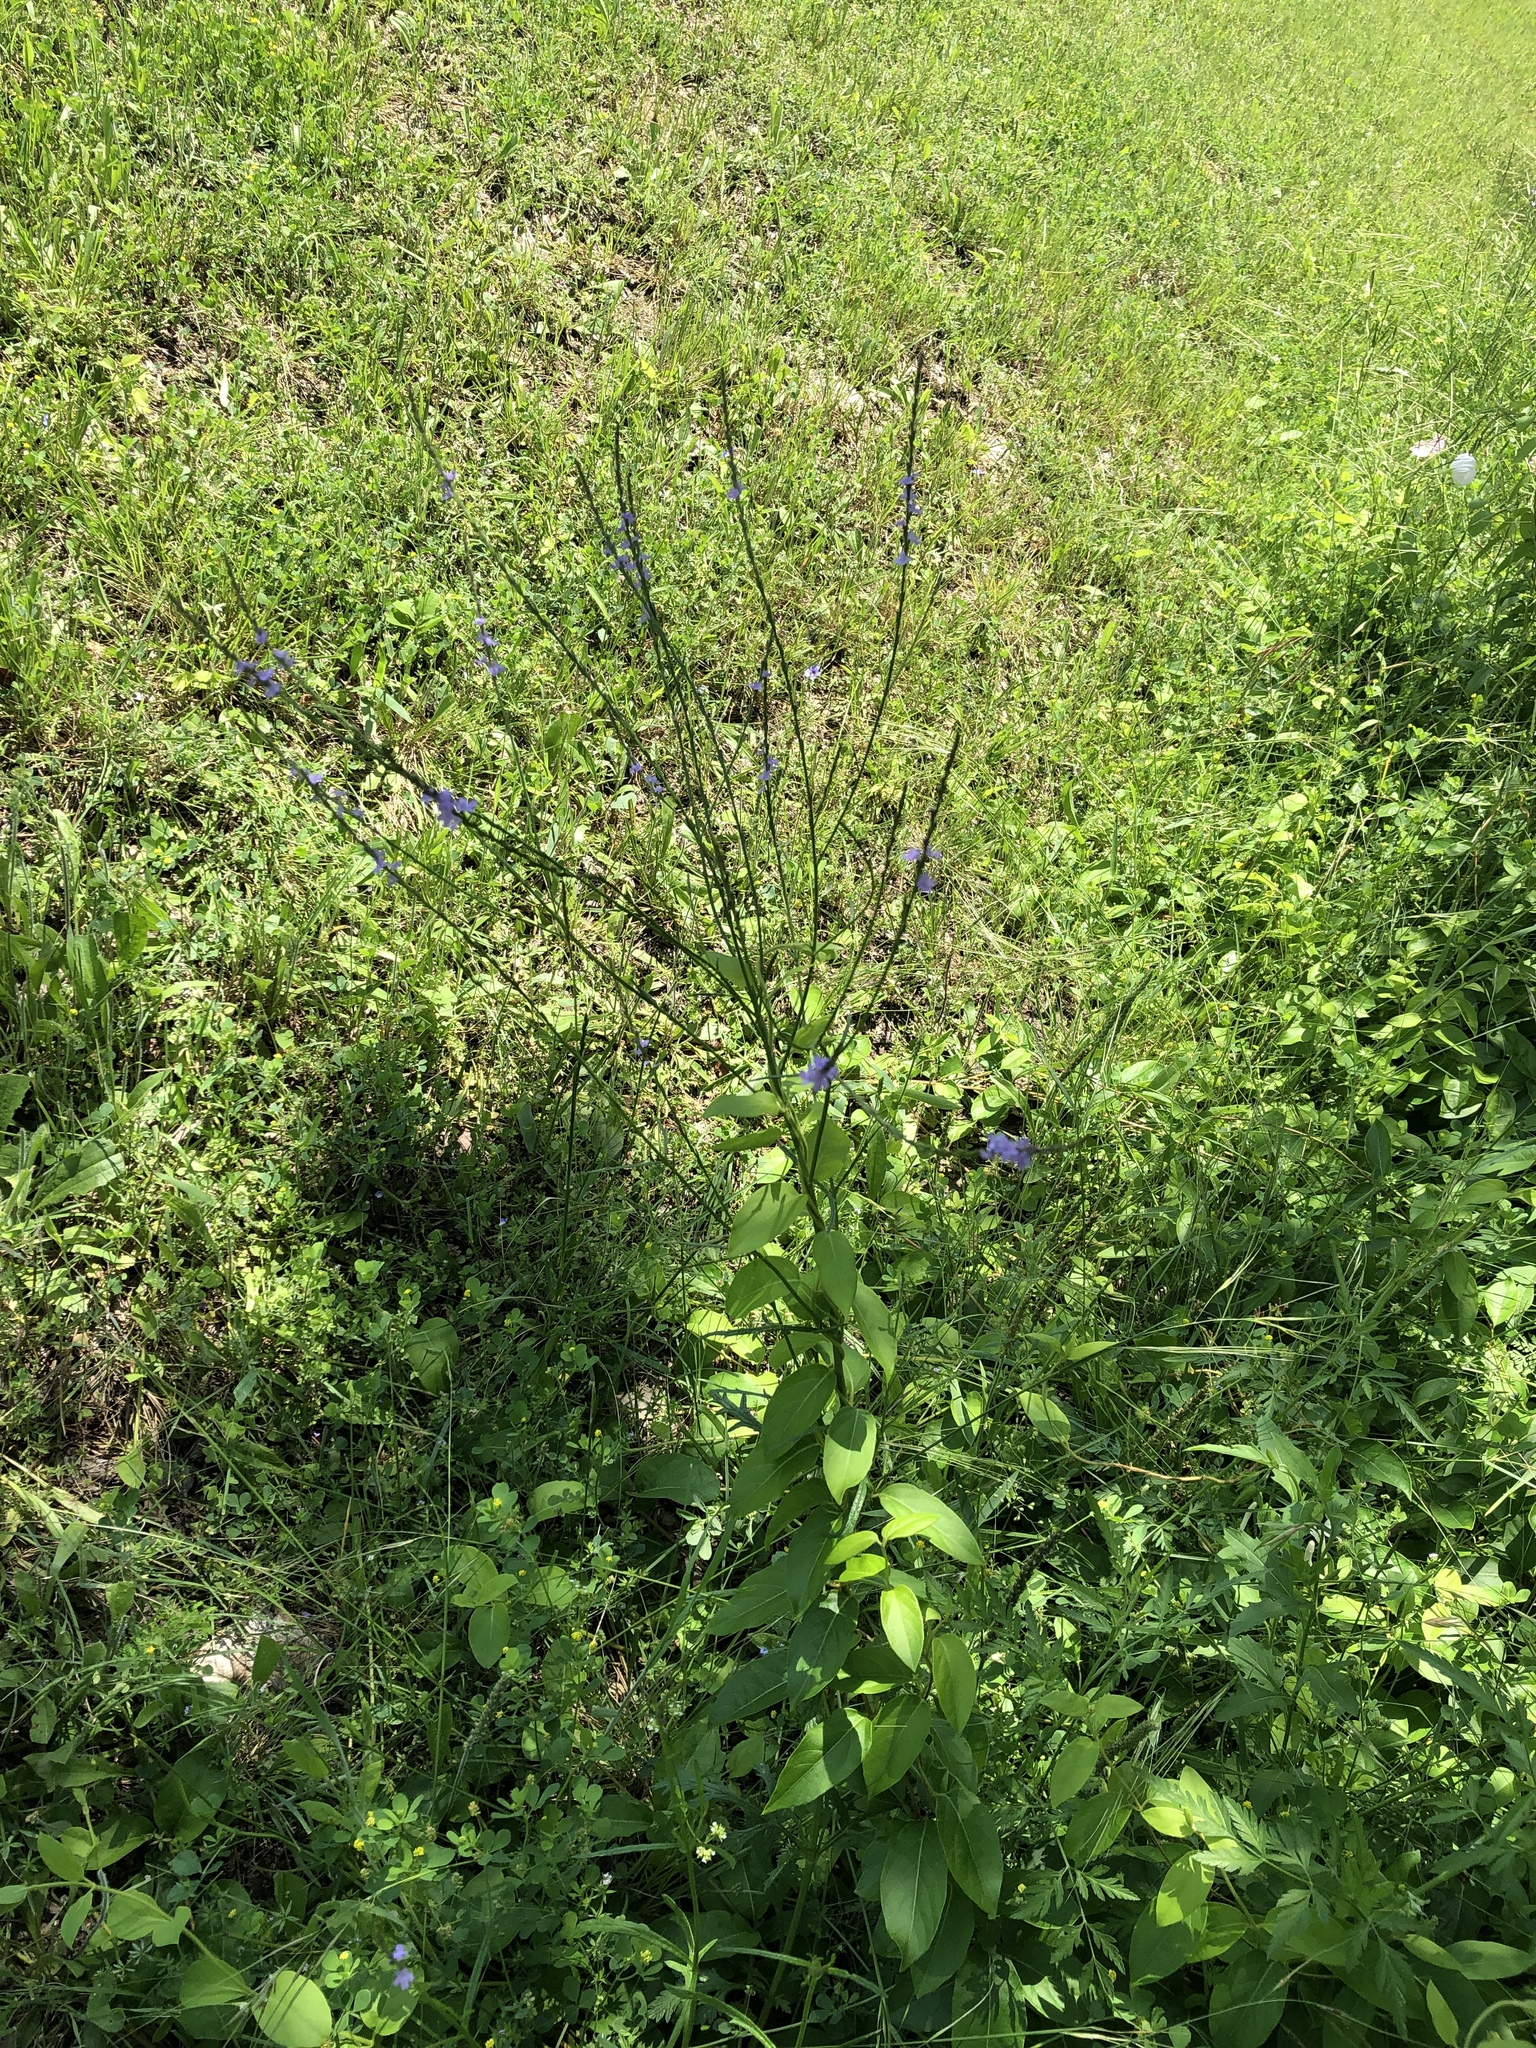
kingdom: Plantae
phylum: Tracheophyta
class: Magnoliopsida
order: Lamiales
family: Verbenaceae
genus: Verbena
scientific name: Verbena halei
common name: Texas vervain
